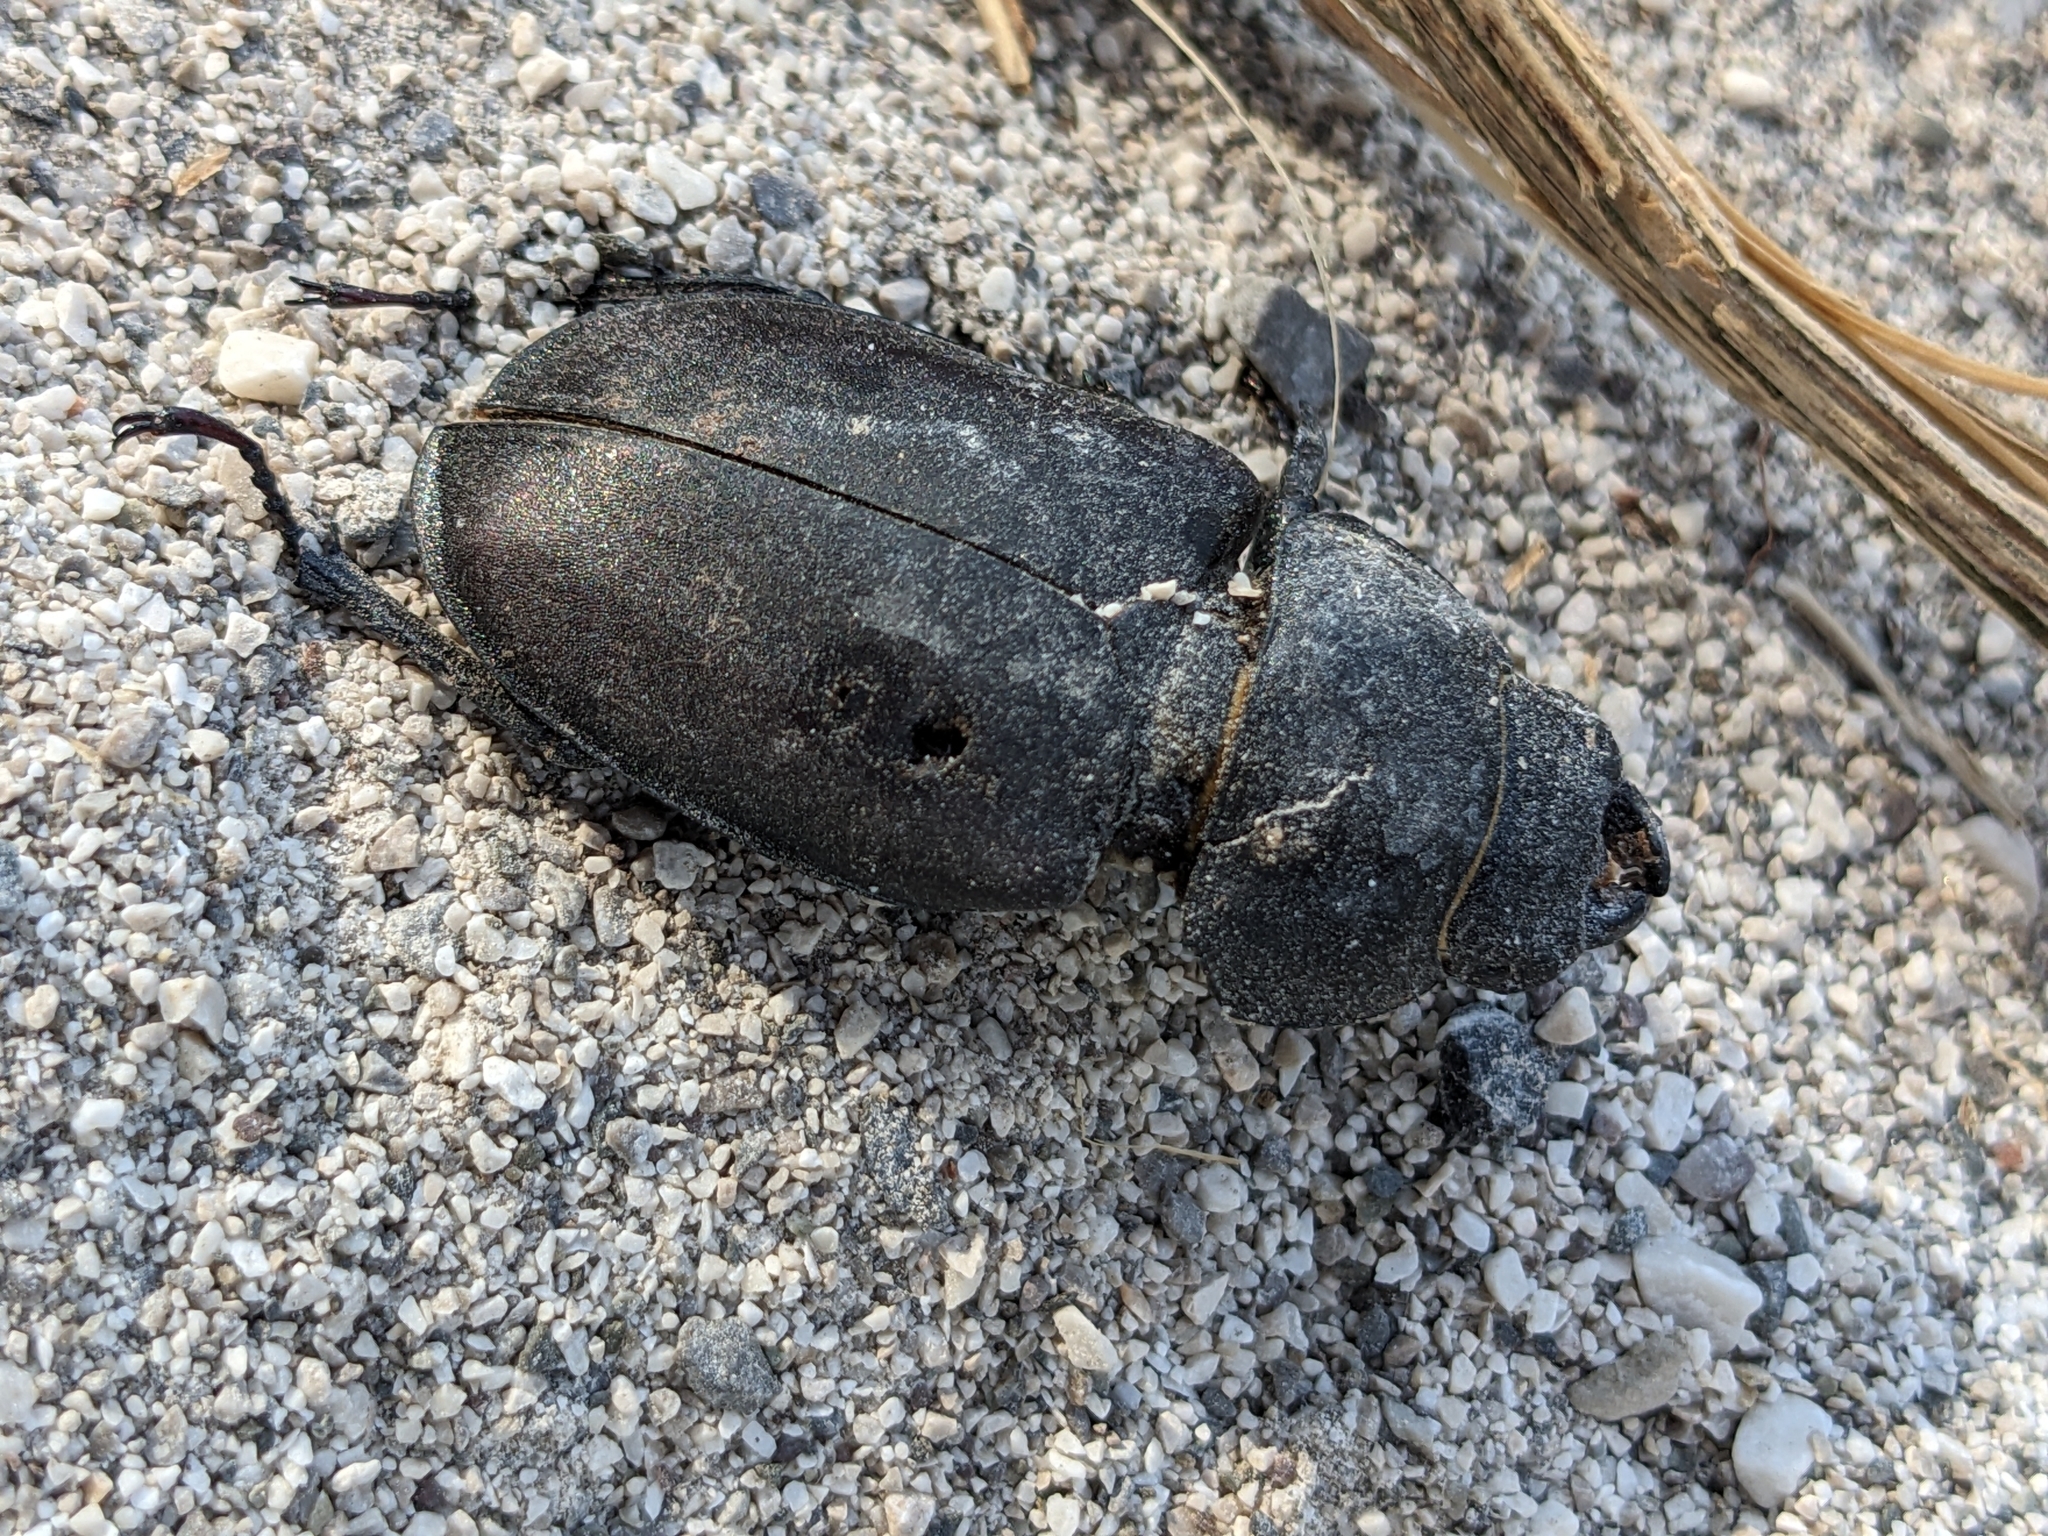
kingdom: Animalia
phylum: Arthropoda
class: Insecta
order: Coleoptera
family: Lucanidae
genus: Lucanus
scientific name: Lucanus cervus
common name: Stag beetle
